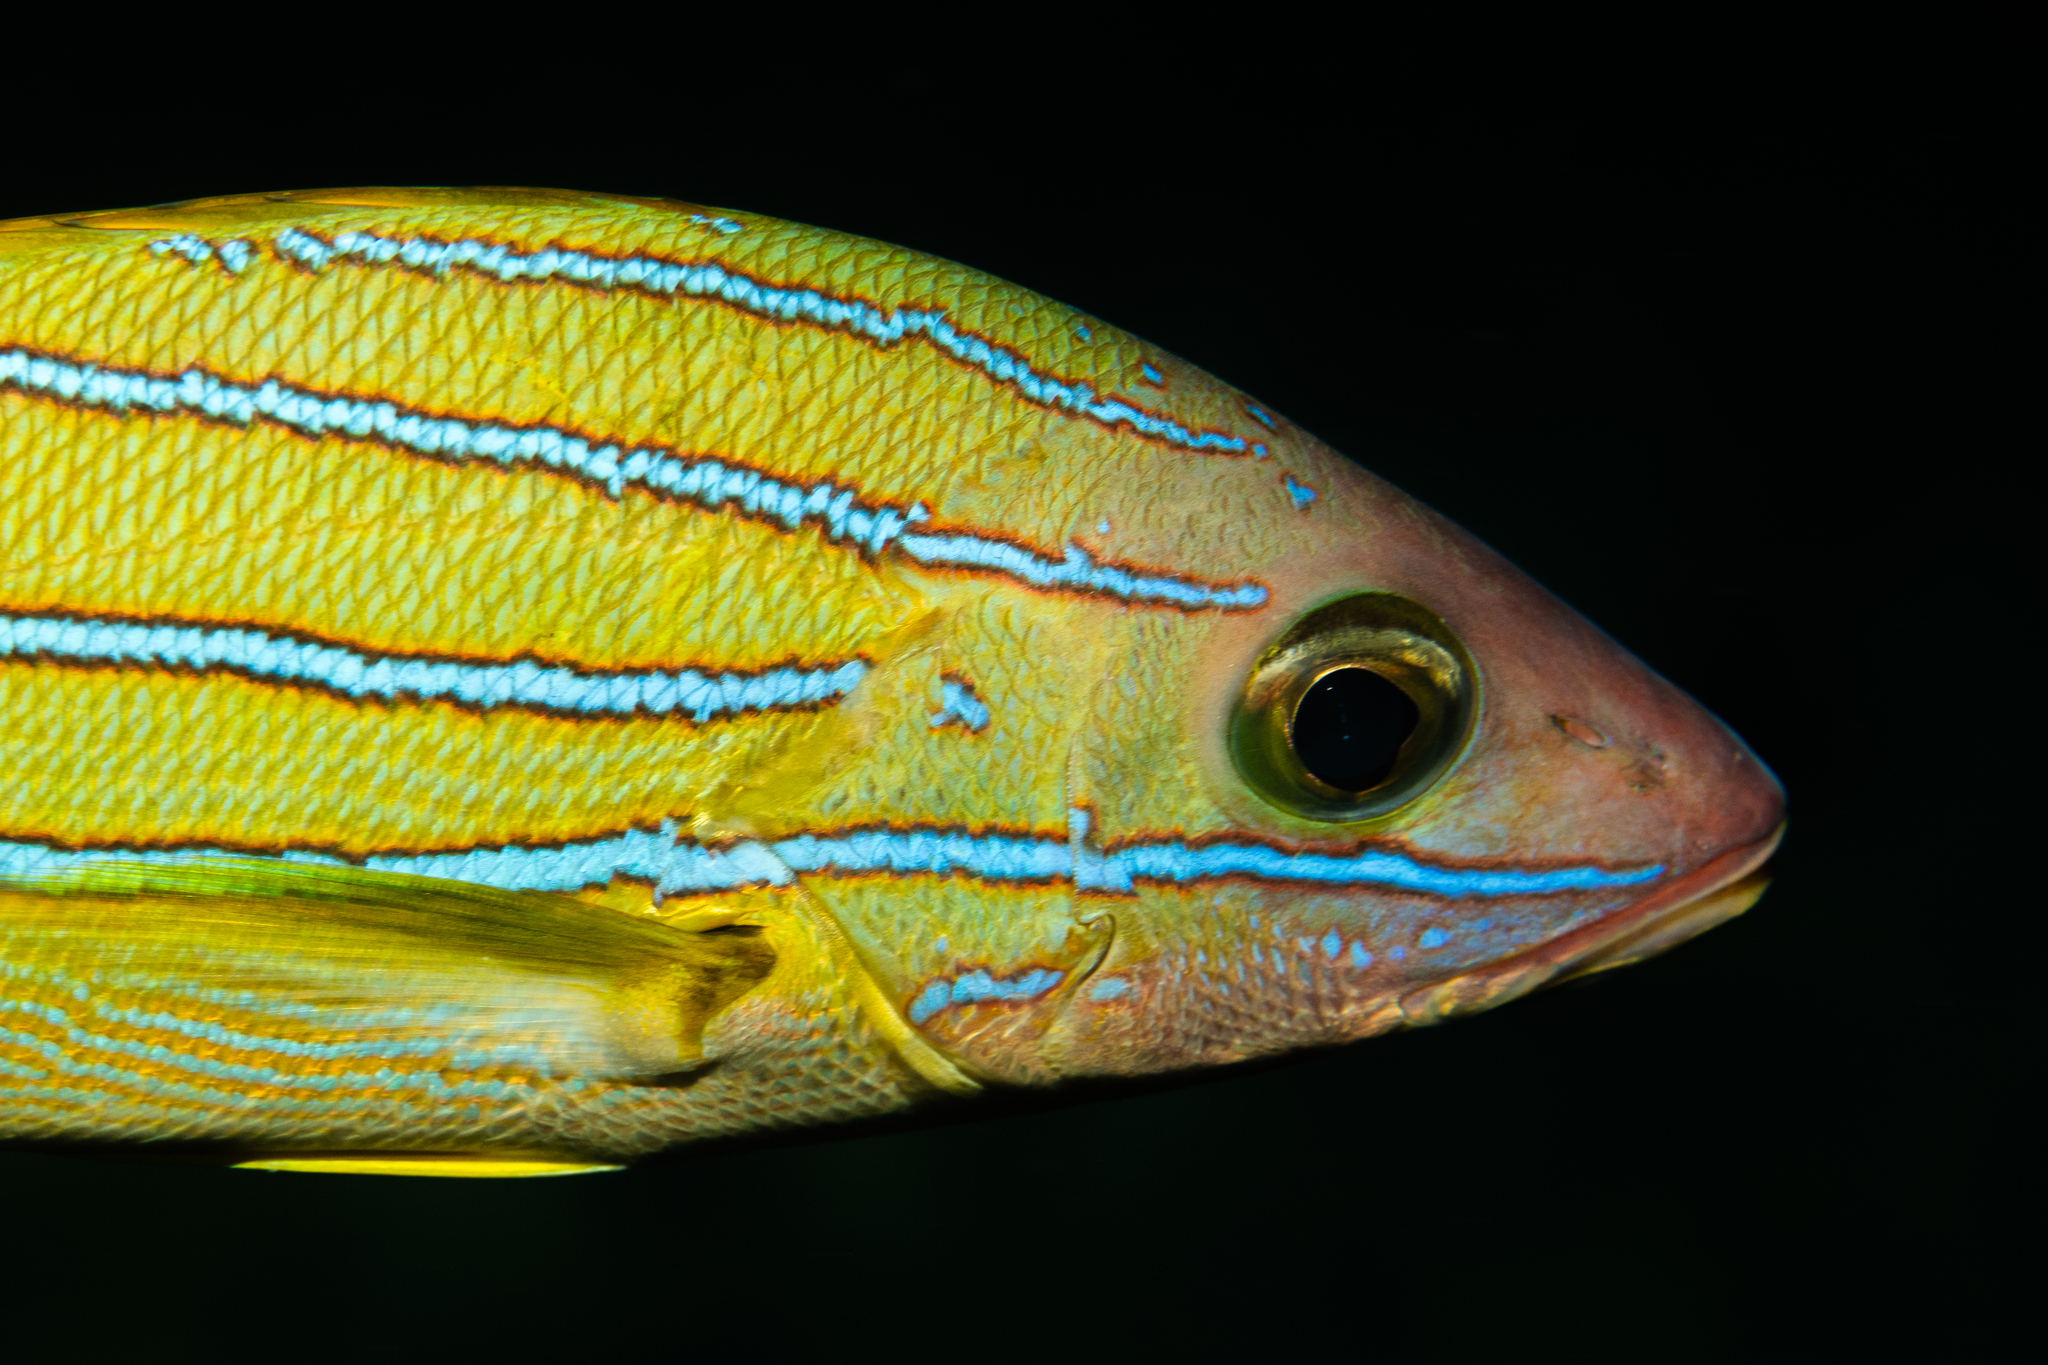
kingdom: Animalia
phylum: Chordata
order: Perciformes
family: Lutjanidae
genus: Lutjanus
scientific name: Lutjanus kasmira
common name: Common bluestripe snapper
